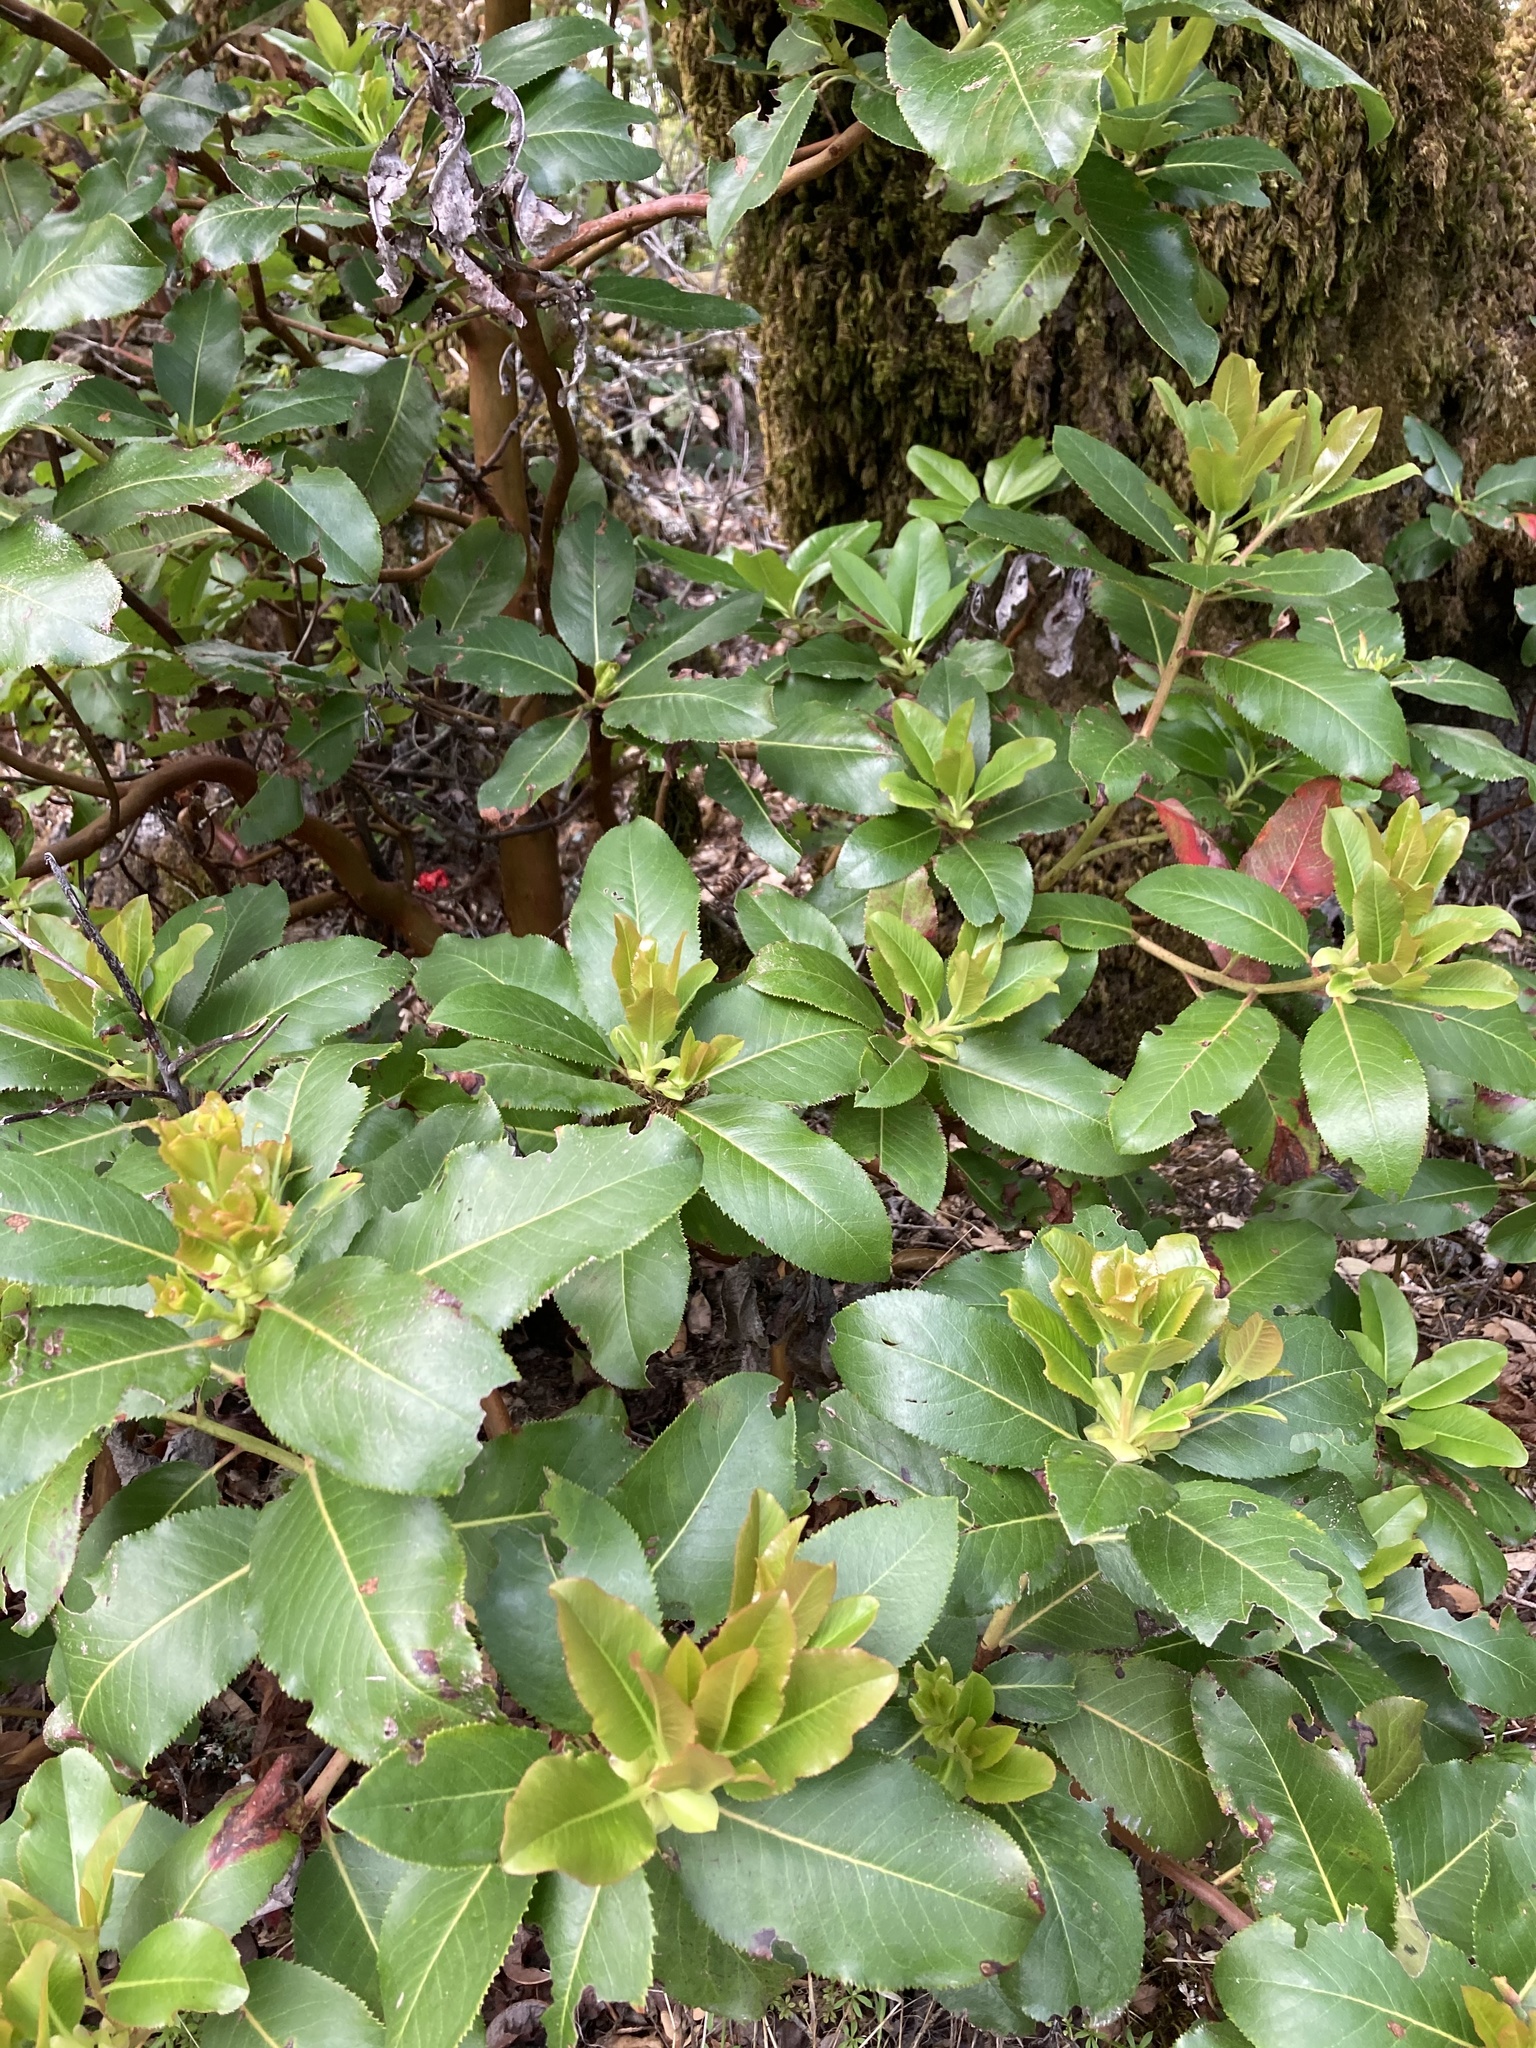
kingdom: Plantae
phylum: Tracheophyta
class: Magnoliopsida
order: Ericales
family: Ericaceae
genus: Arbutus
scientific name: Arbutus menziesii
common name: Pacific madrone
